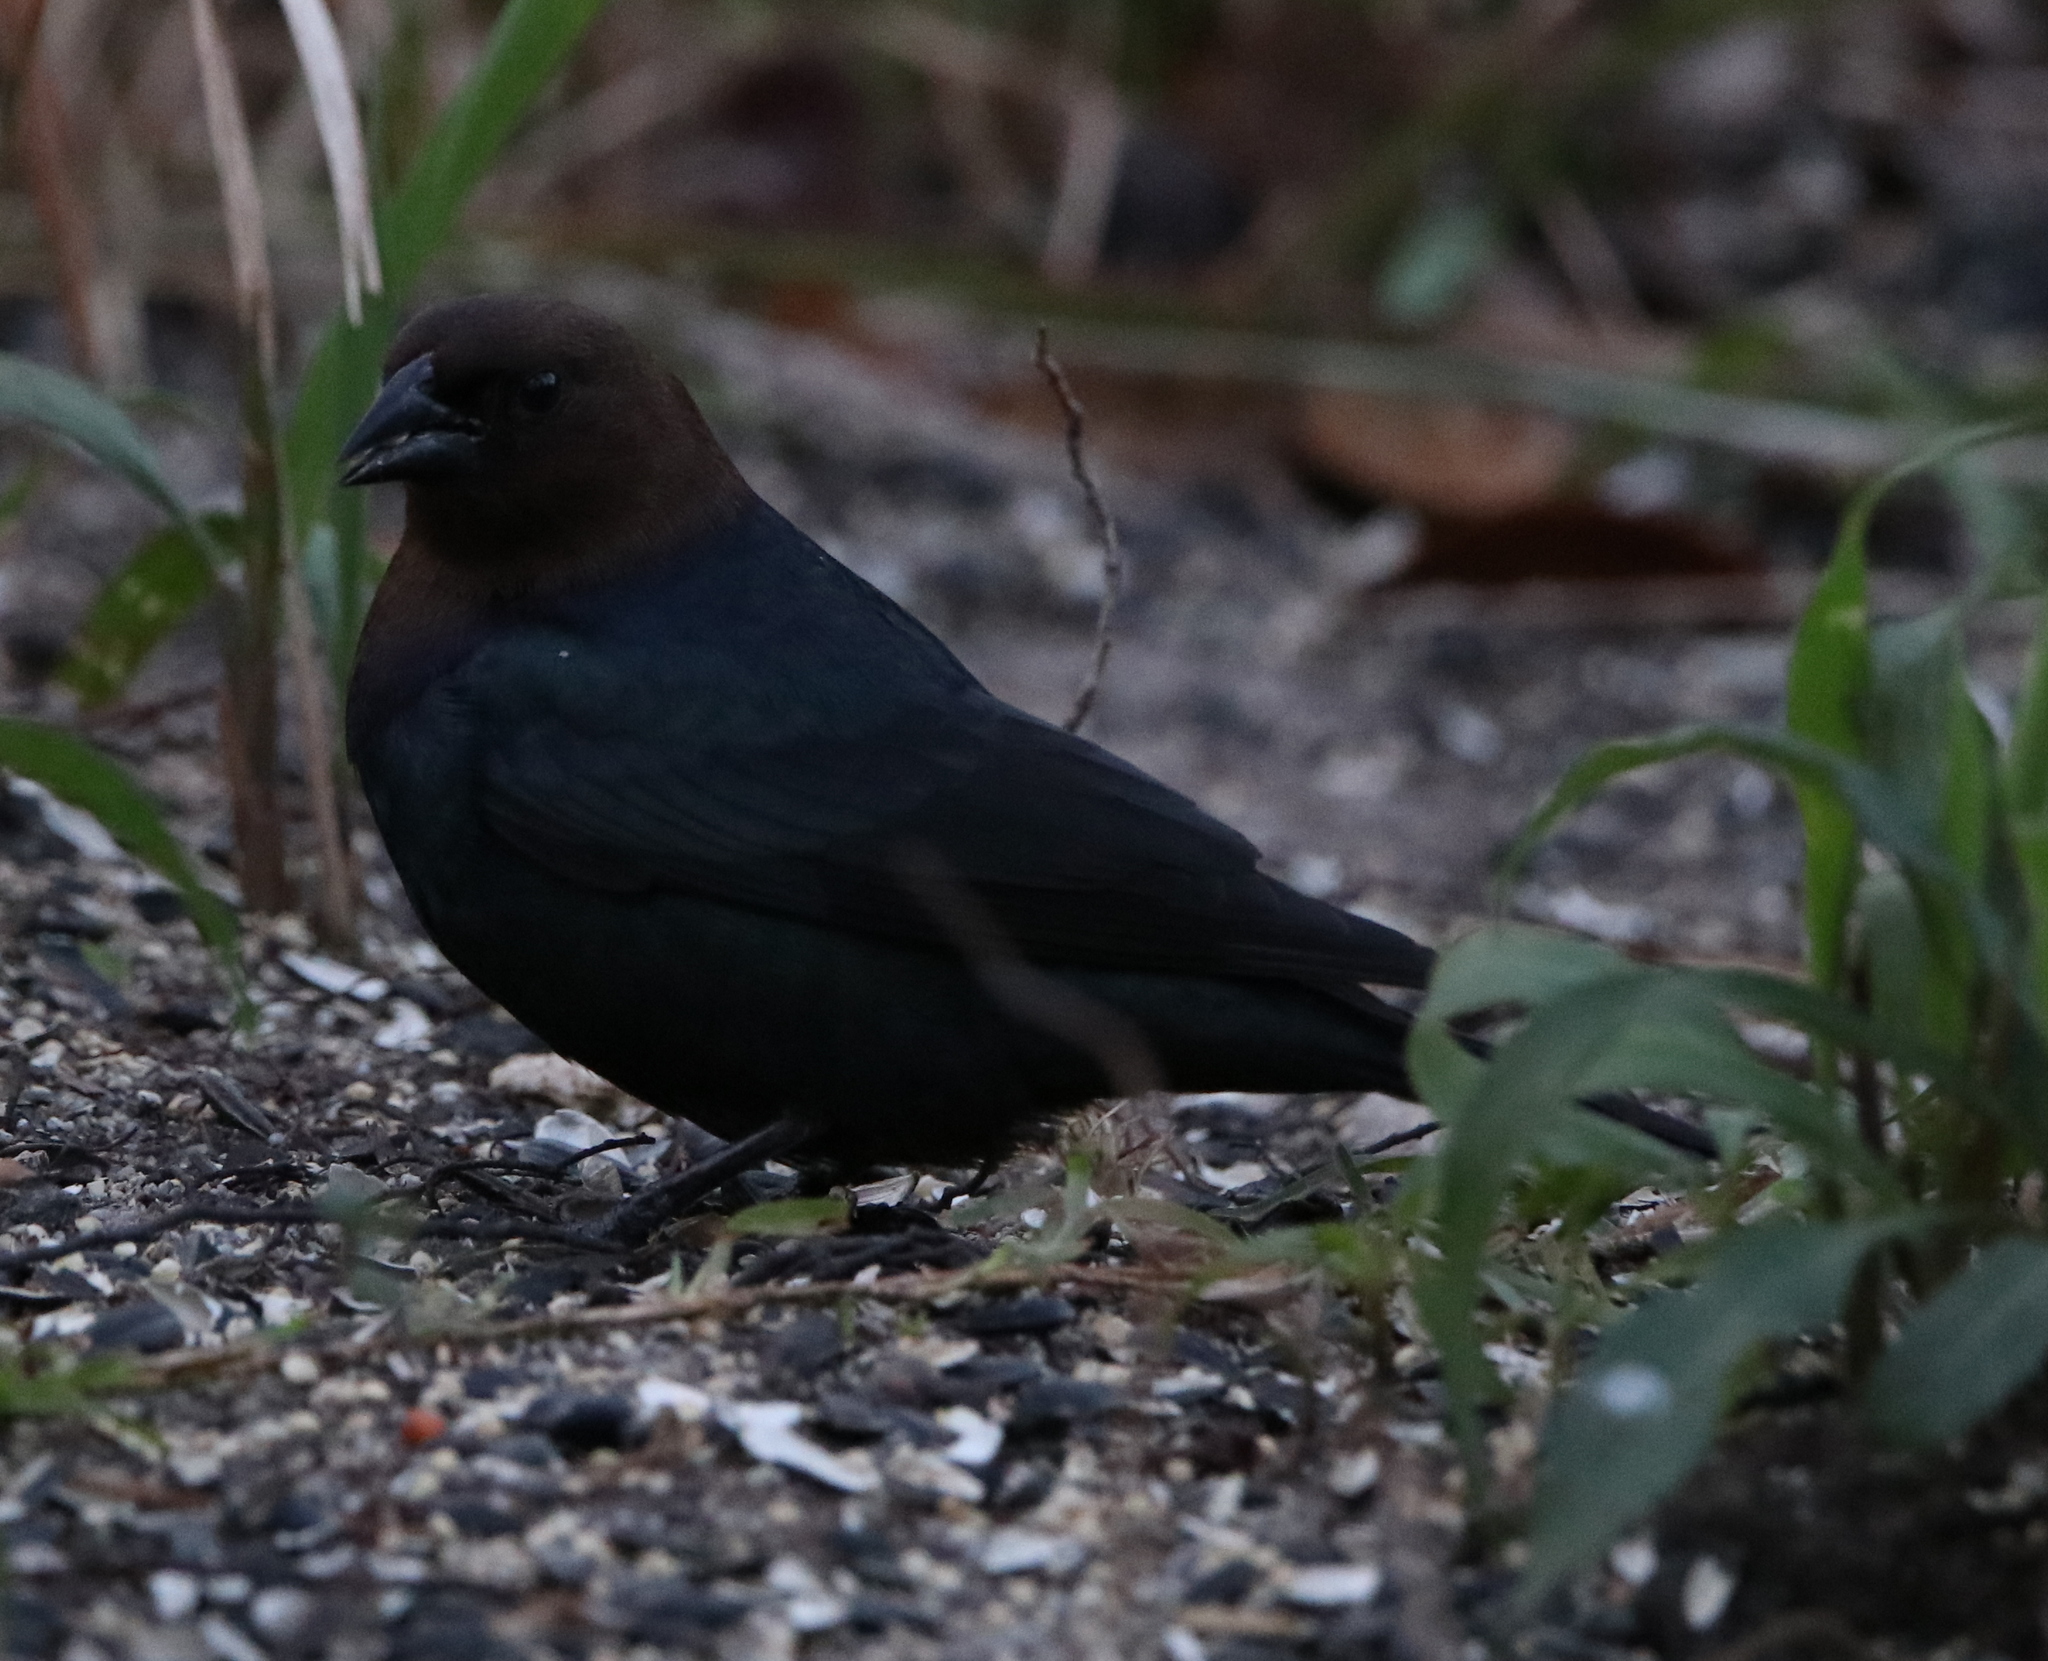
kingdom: Animalia
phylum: Chordata
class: Aves
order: Passeriformes
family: Icteridae
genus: Molothrus
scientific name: Molothrus ater
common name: Brown-headed cowbird
